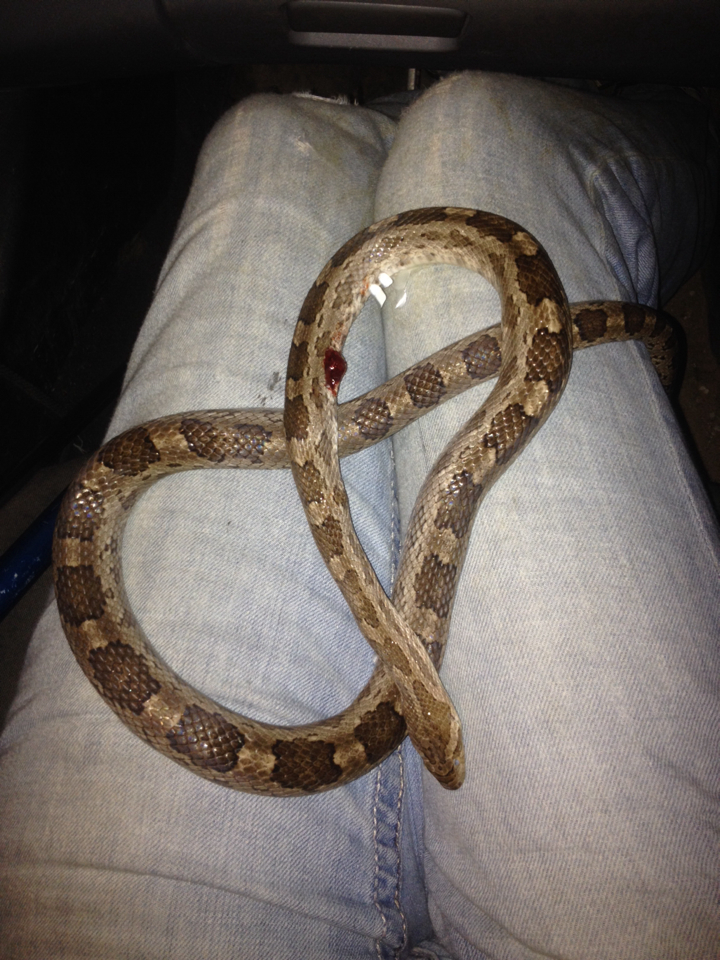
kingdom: Animalia
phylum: Chordata
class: Squamata
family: Colubridae
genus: Pantherophis
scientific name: Pantherophis emoryi
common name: Great plains rat snake
